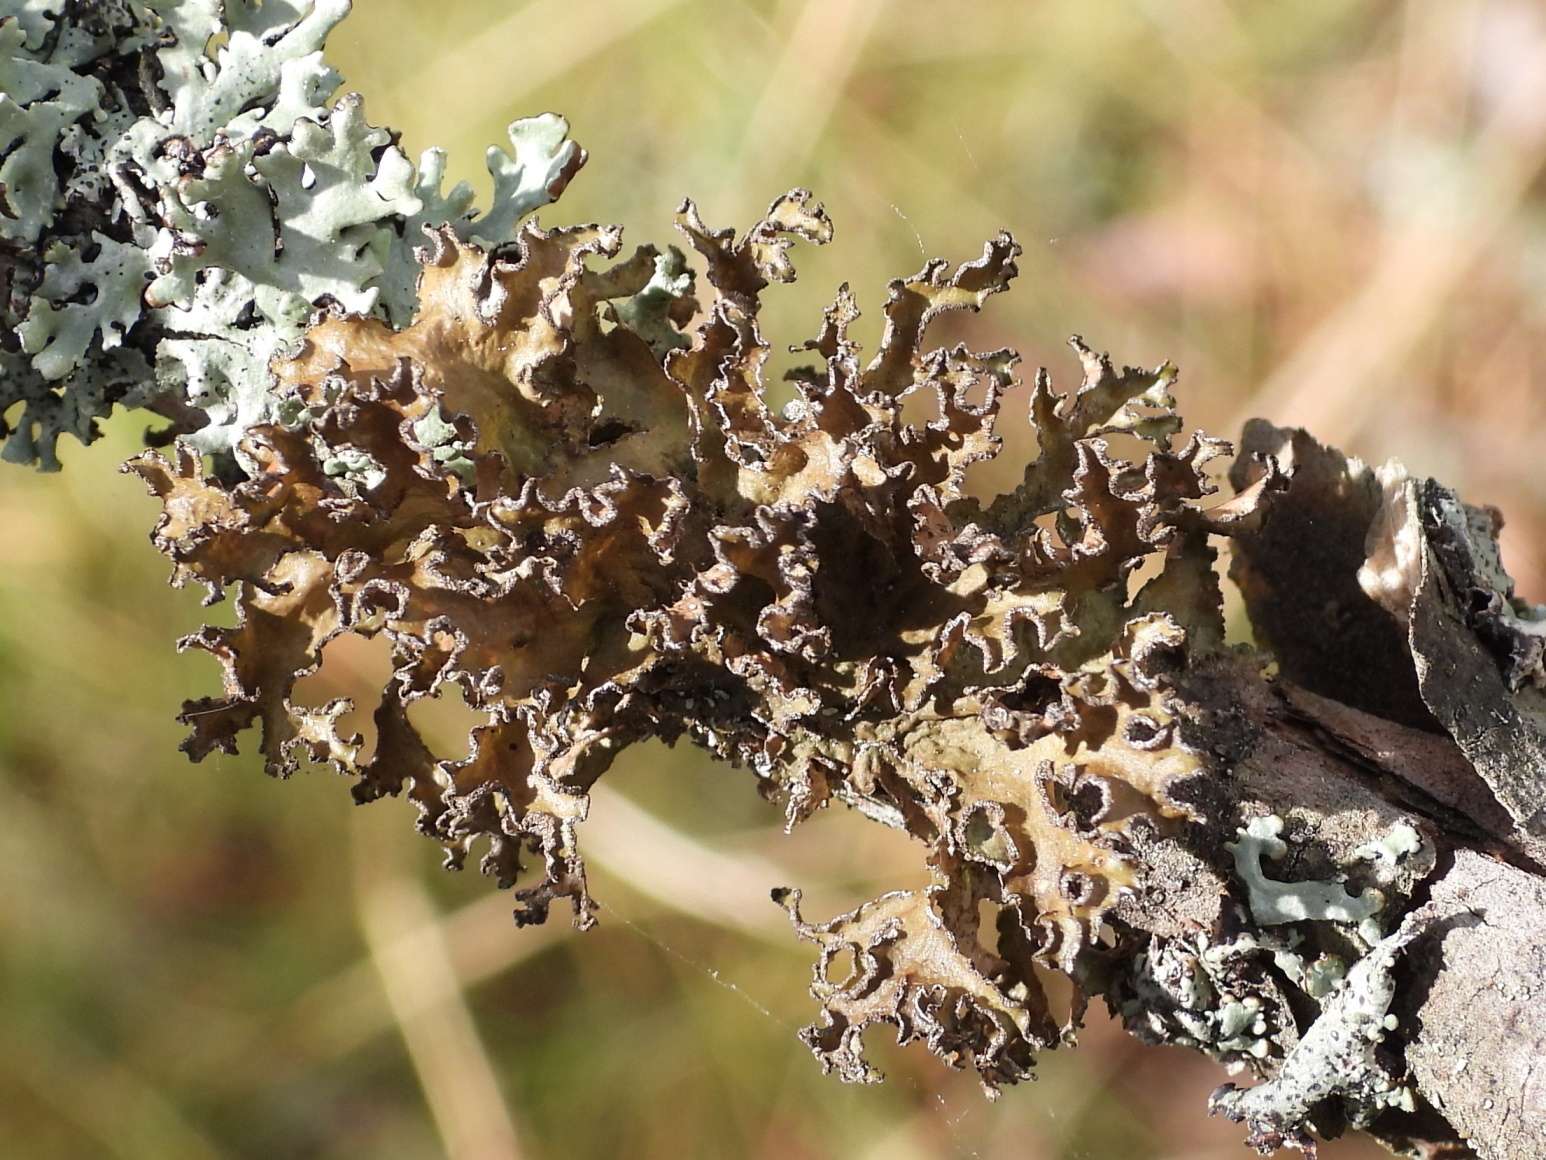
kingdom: Fungi
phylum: Ascomycota
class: Lecanoromycetes
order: Lecanorales
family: Parmeliaceae
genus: Nephromopsis
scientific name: Nephromopsis chlorophylla
